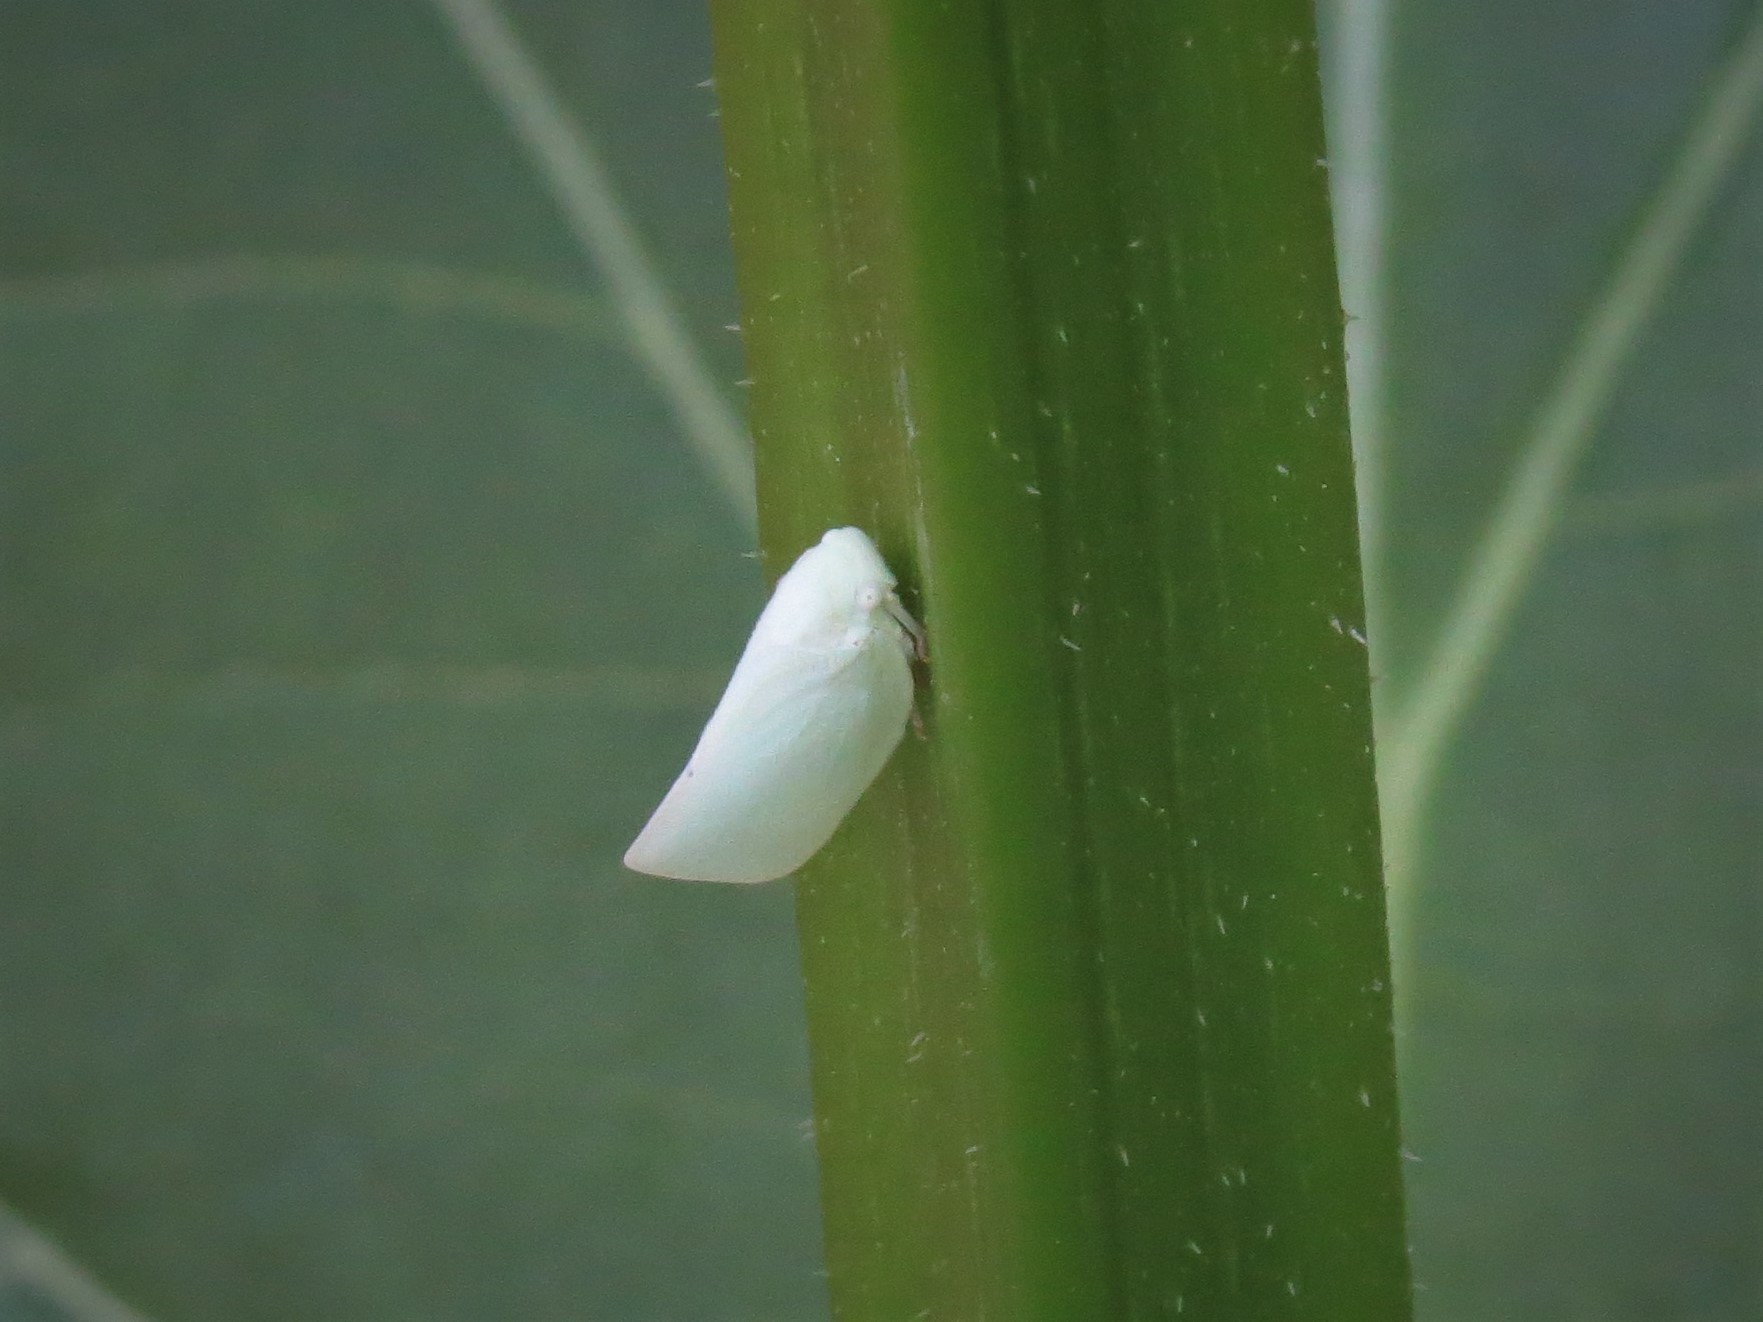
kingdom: Animalia
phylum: Arthropoda
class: Insecta
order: Hemiptera
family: Flatidae
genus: Flatormenis
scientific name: Flatormenis proxima
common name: Northern flatid planthopper
